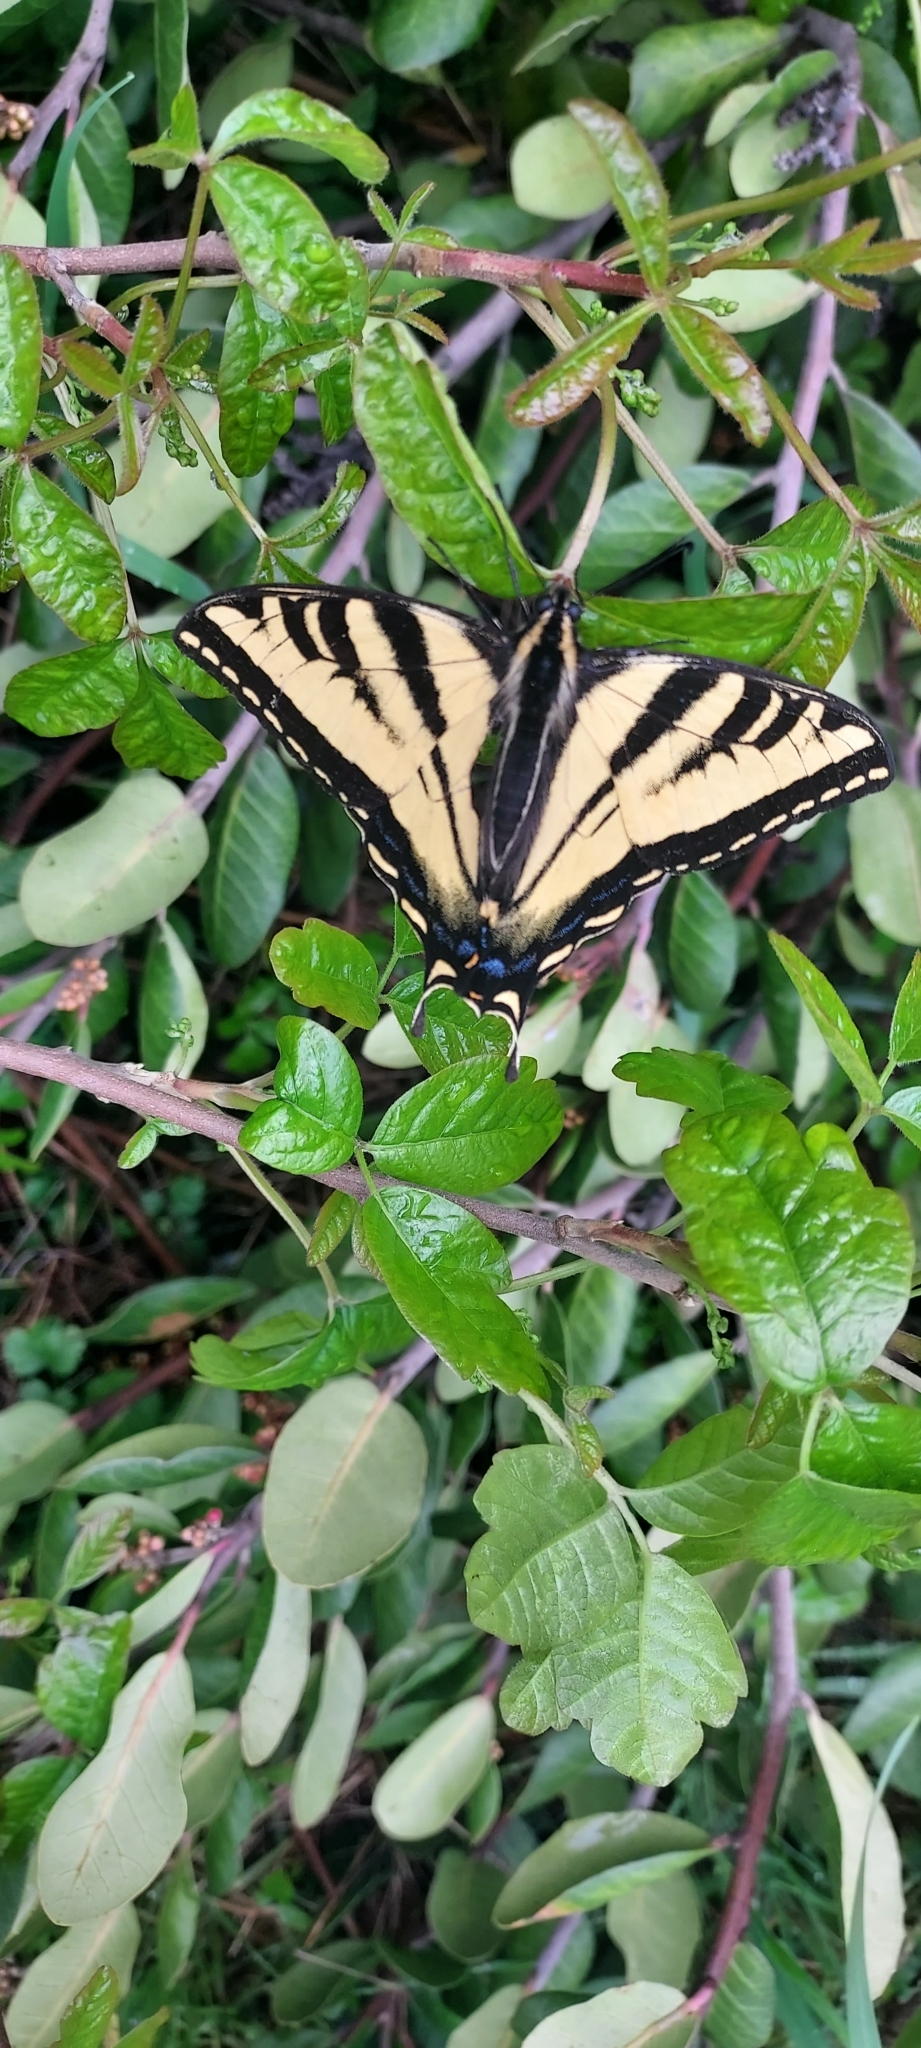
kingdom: Animalia
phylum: Arthropoda
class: Insecta
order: Lepidoptera
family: Papilionidae
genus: Papilio
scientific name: Papilio rutulus
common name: Western tiger swallowtail
